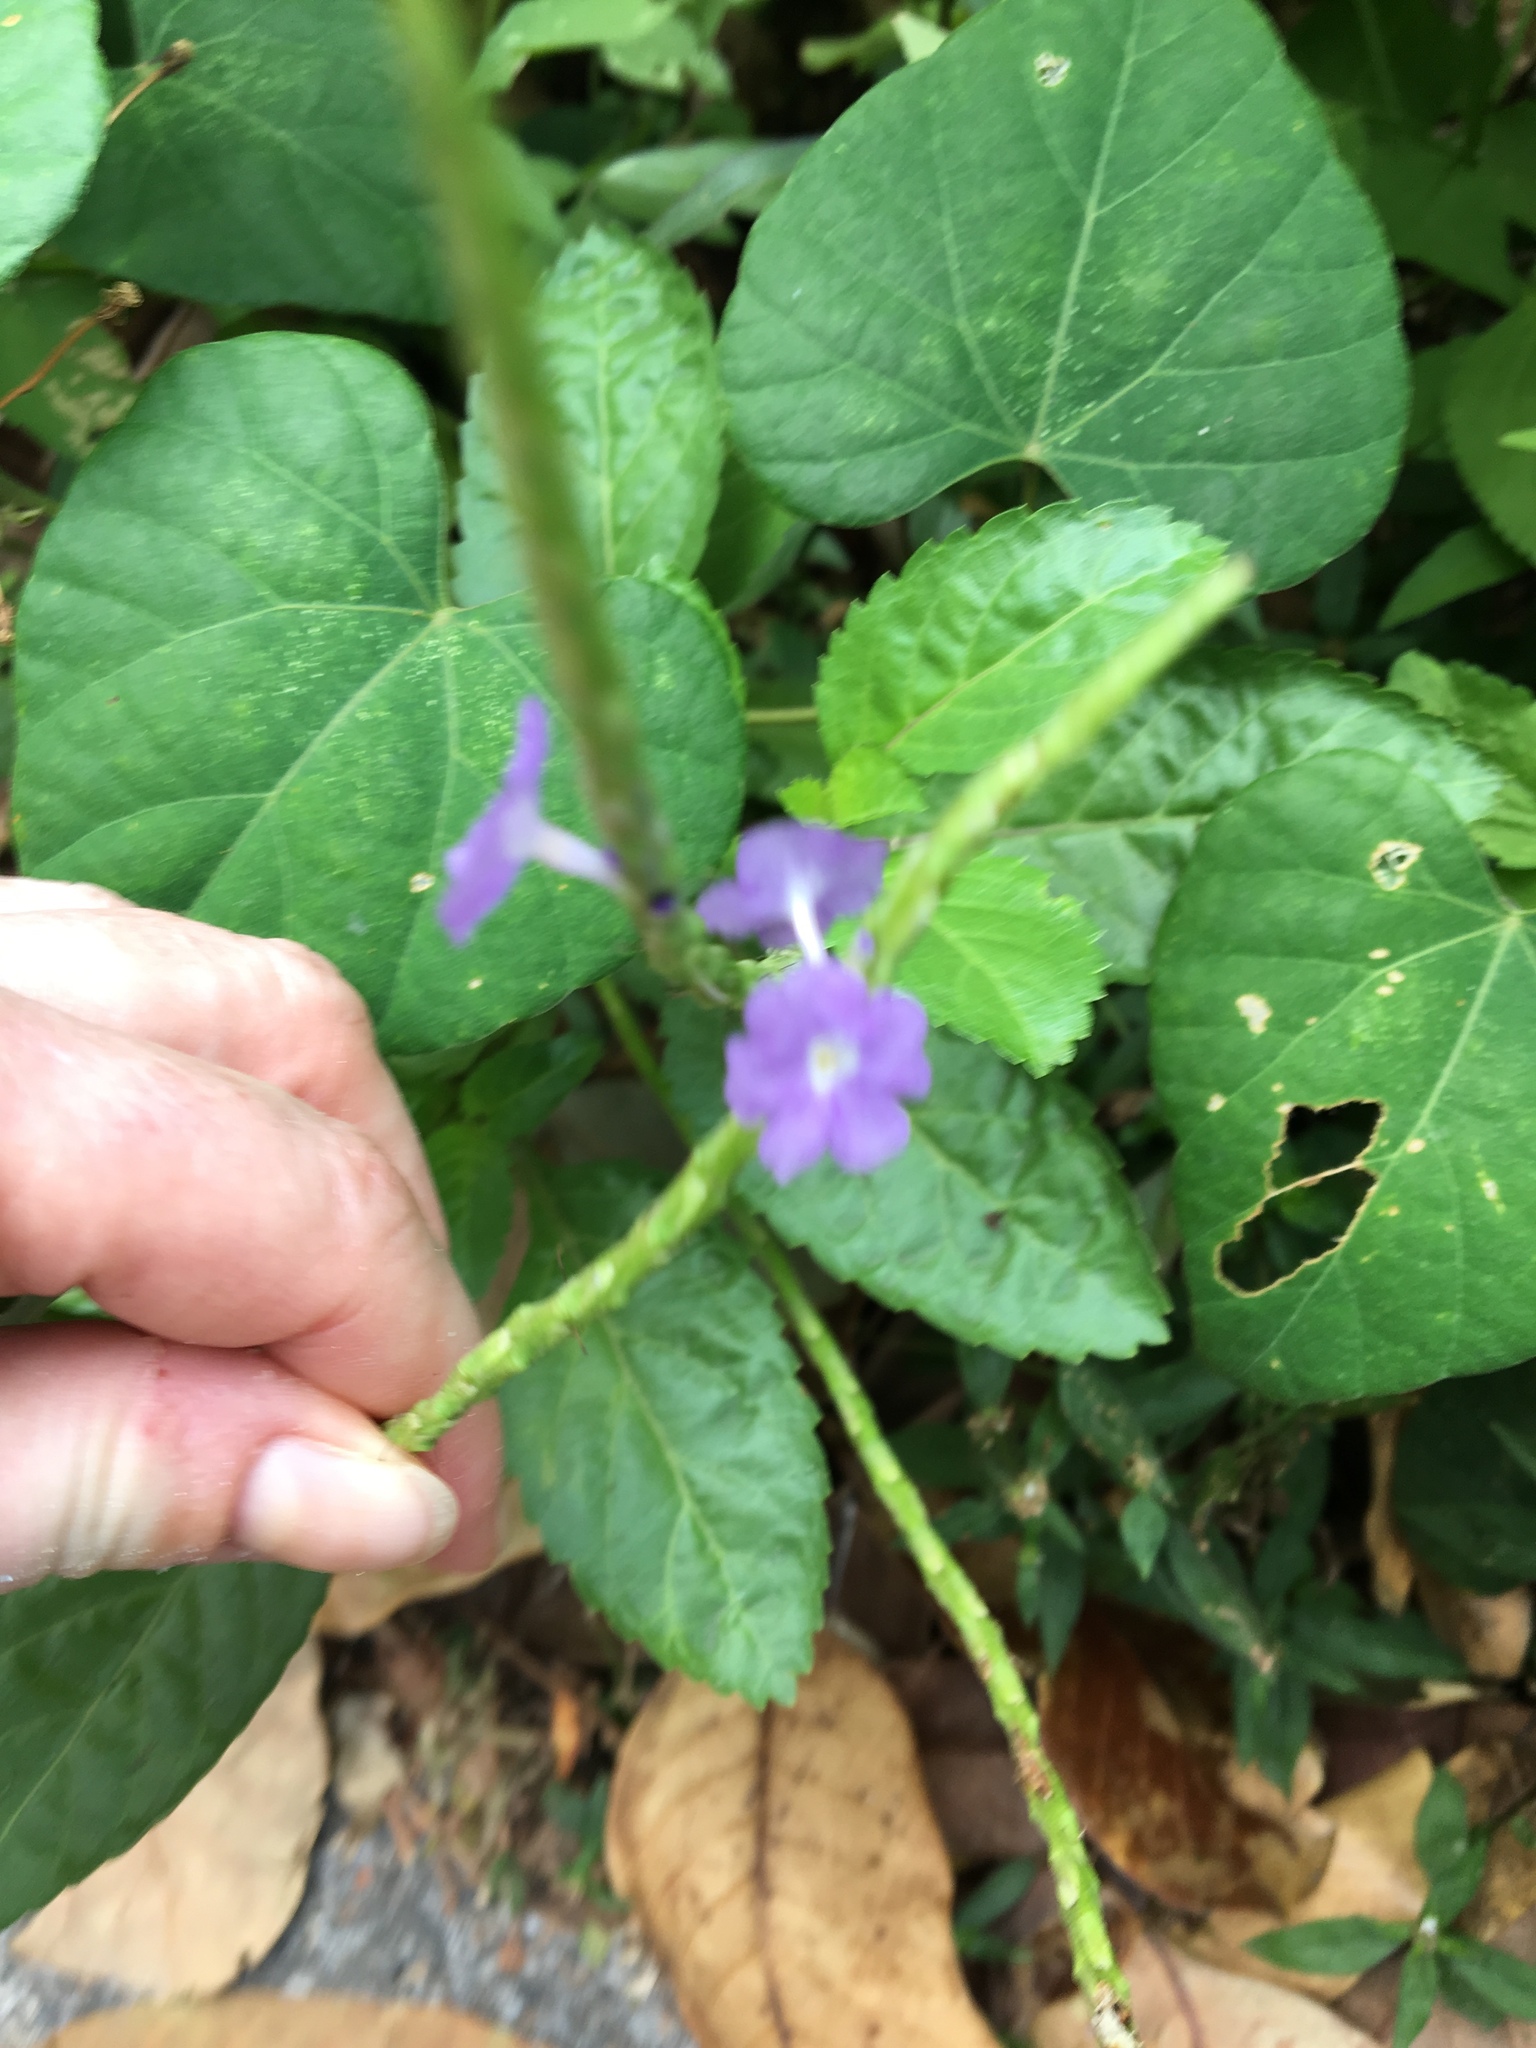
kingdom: Plantae
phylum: Tracheophyta
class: Magnoliopsida
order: Lamiales
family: Verbenaceae
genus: Stachytarpheta
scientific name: Stachytarpheta jamaicensis
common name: Light-blue snakeweed
